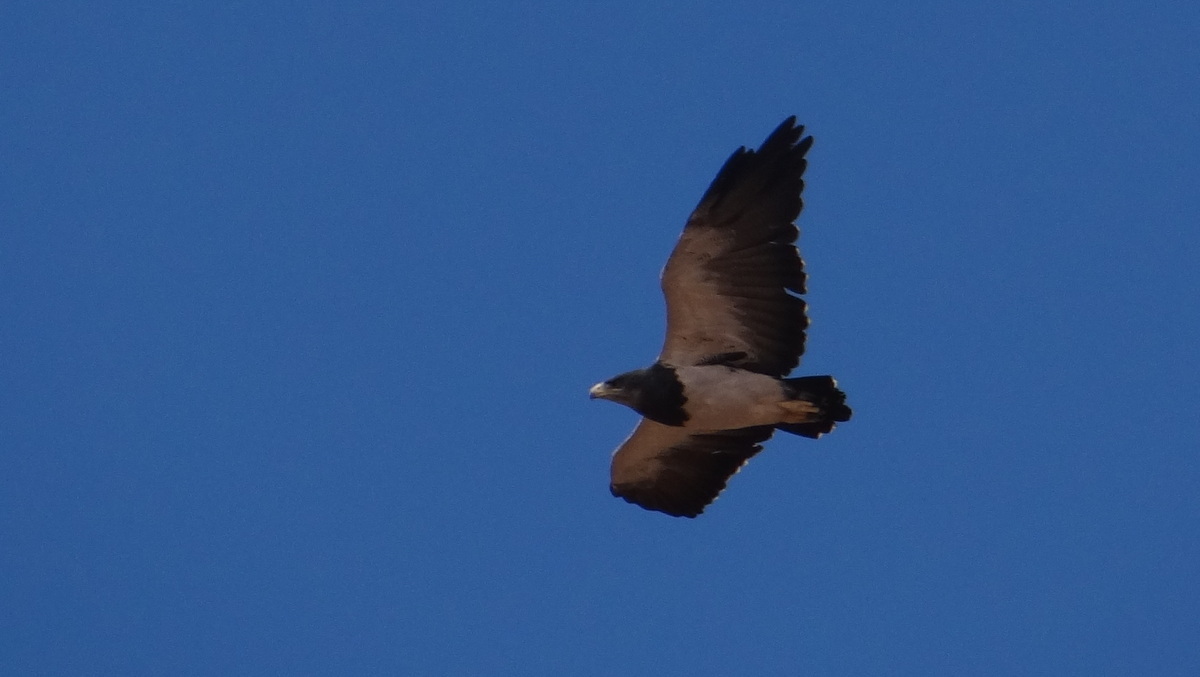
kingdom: Animalia
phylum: Chordata
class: Aves
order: Accipitriformes
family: Accipitridae
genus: Geranoaetus
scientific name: Geranoaetus melanoleucus
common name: Black-chested buzzard-eagle
